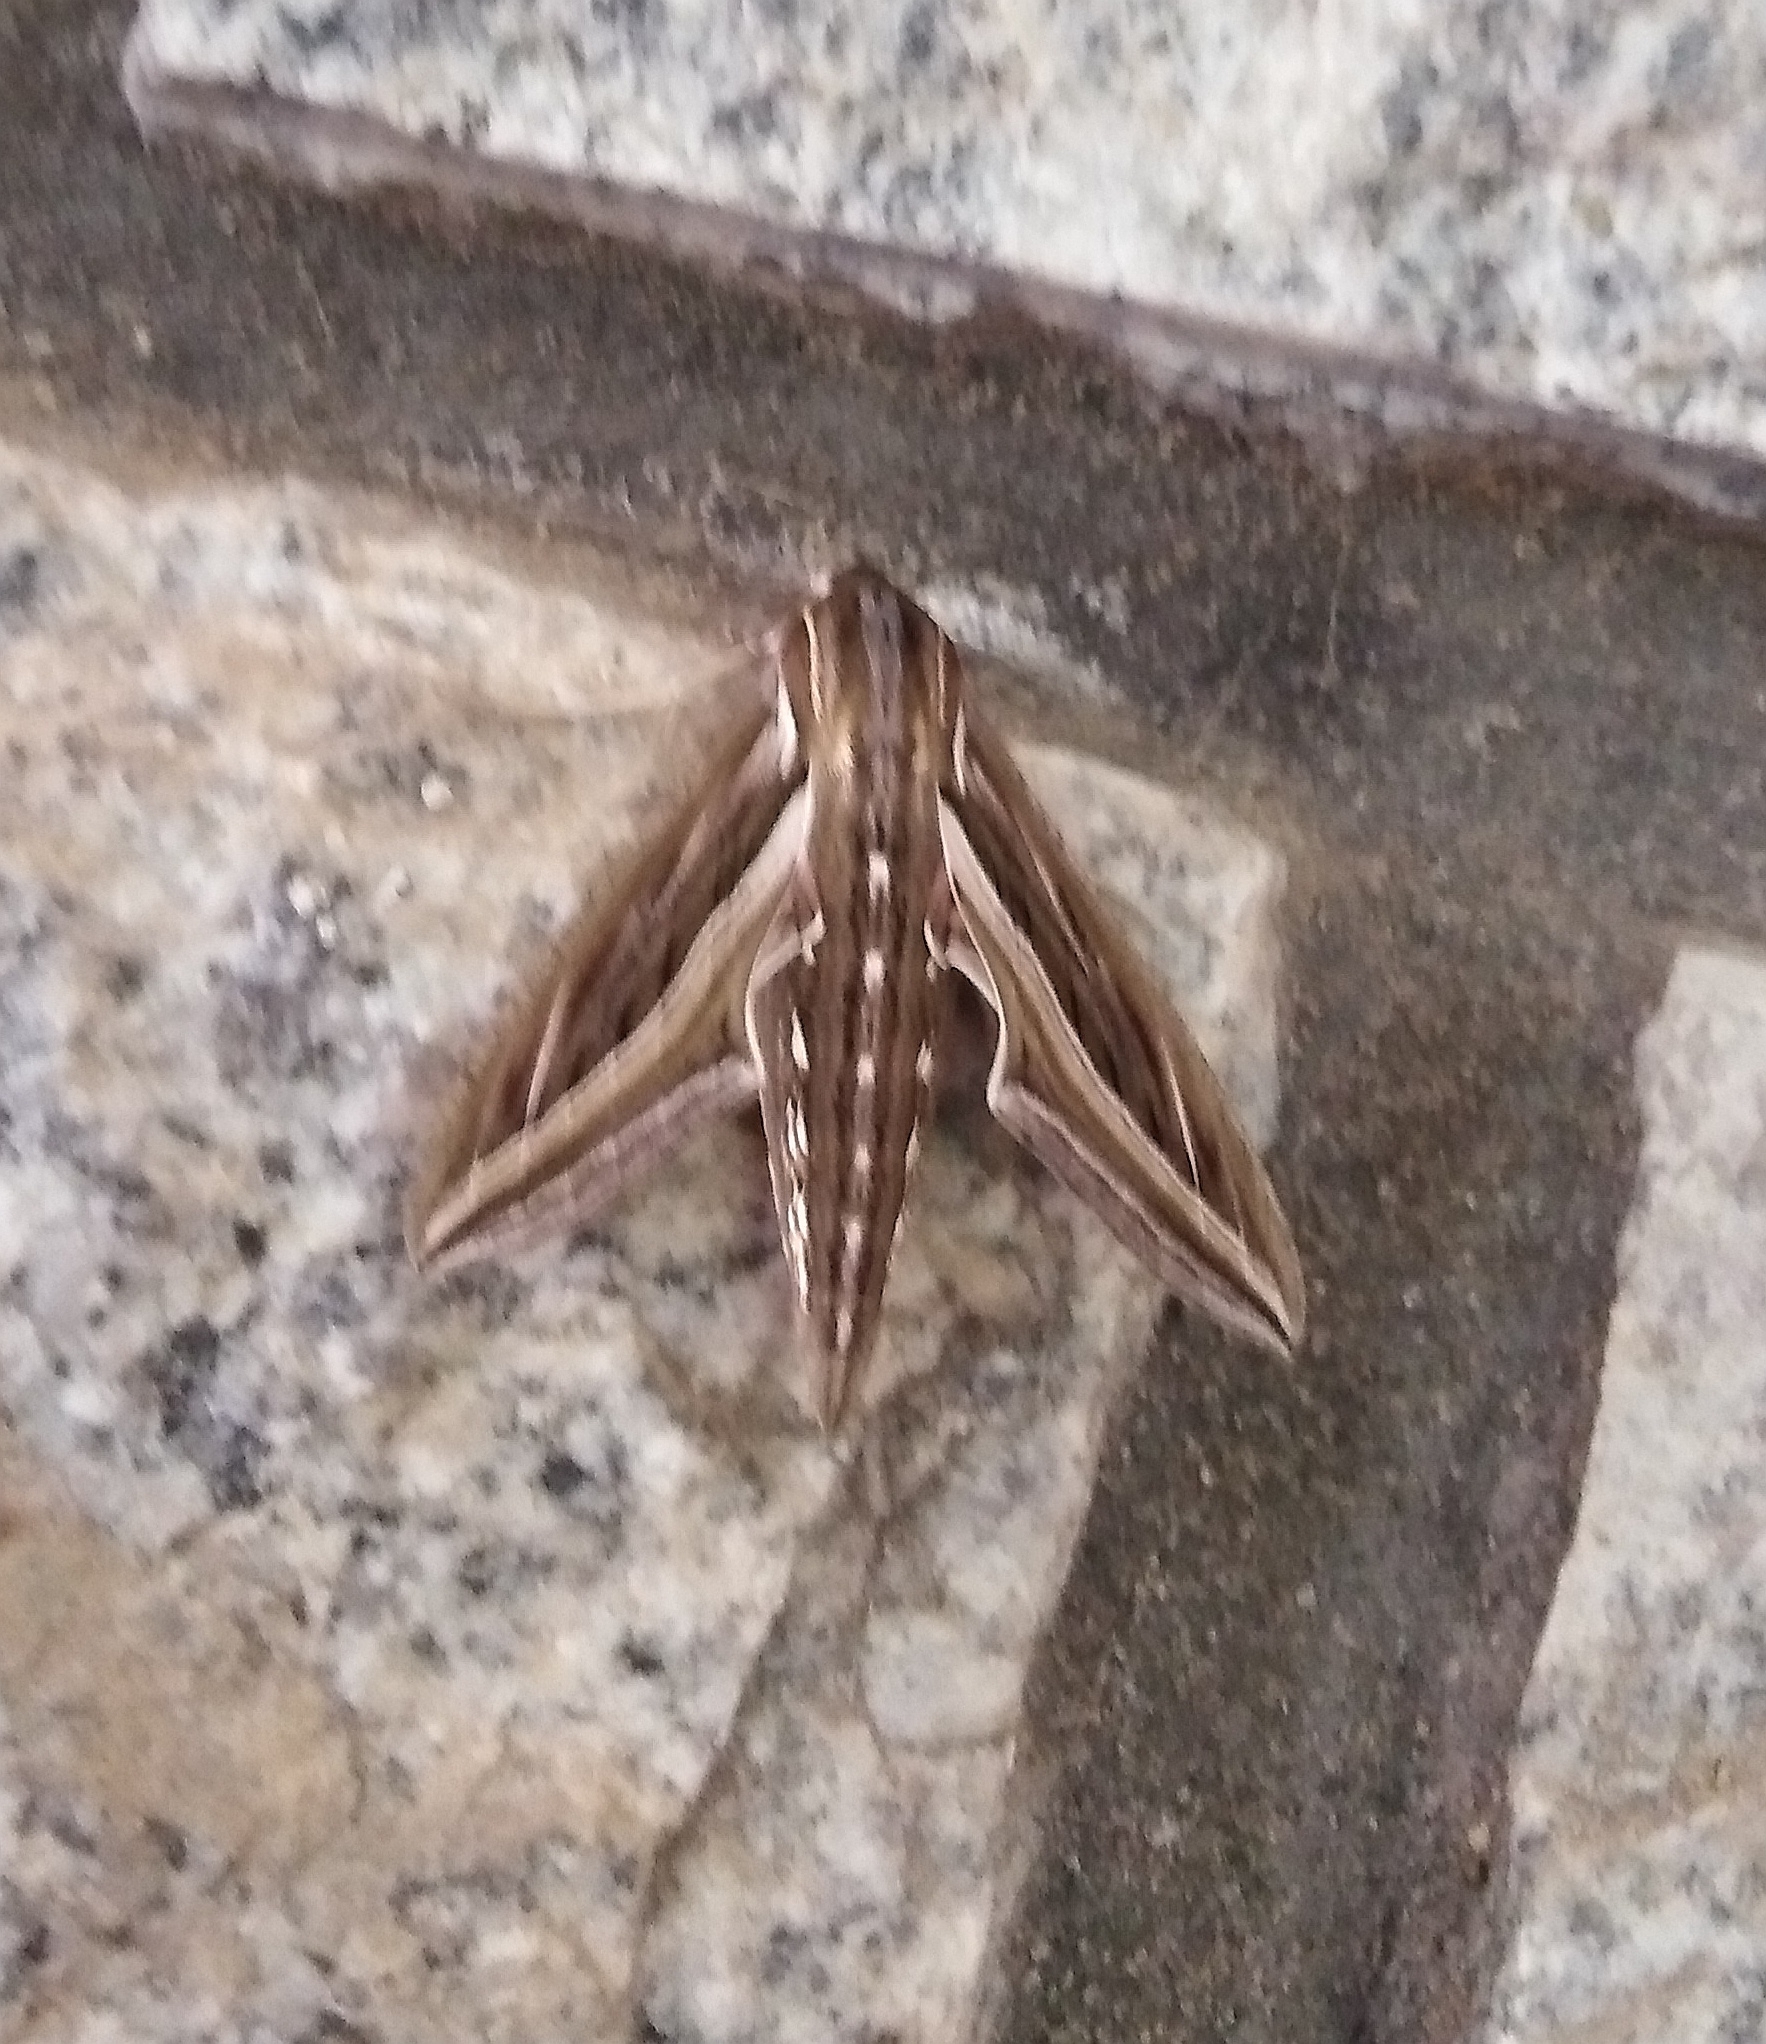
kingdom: Animalia
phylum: Arthropoda
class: Insecta
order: Lepidoptera
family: Sphingidae
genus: Hippotion
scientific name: Hippotion celerio
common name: Silver-striped hawk-moth
